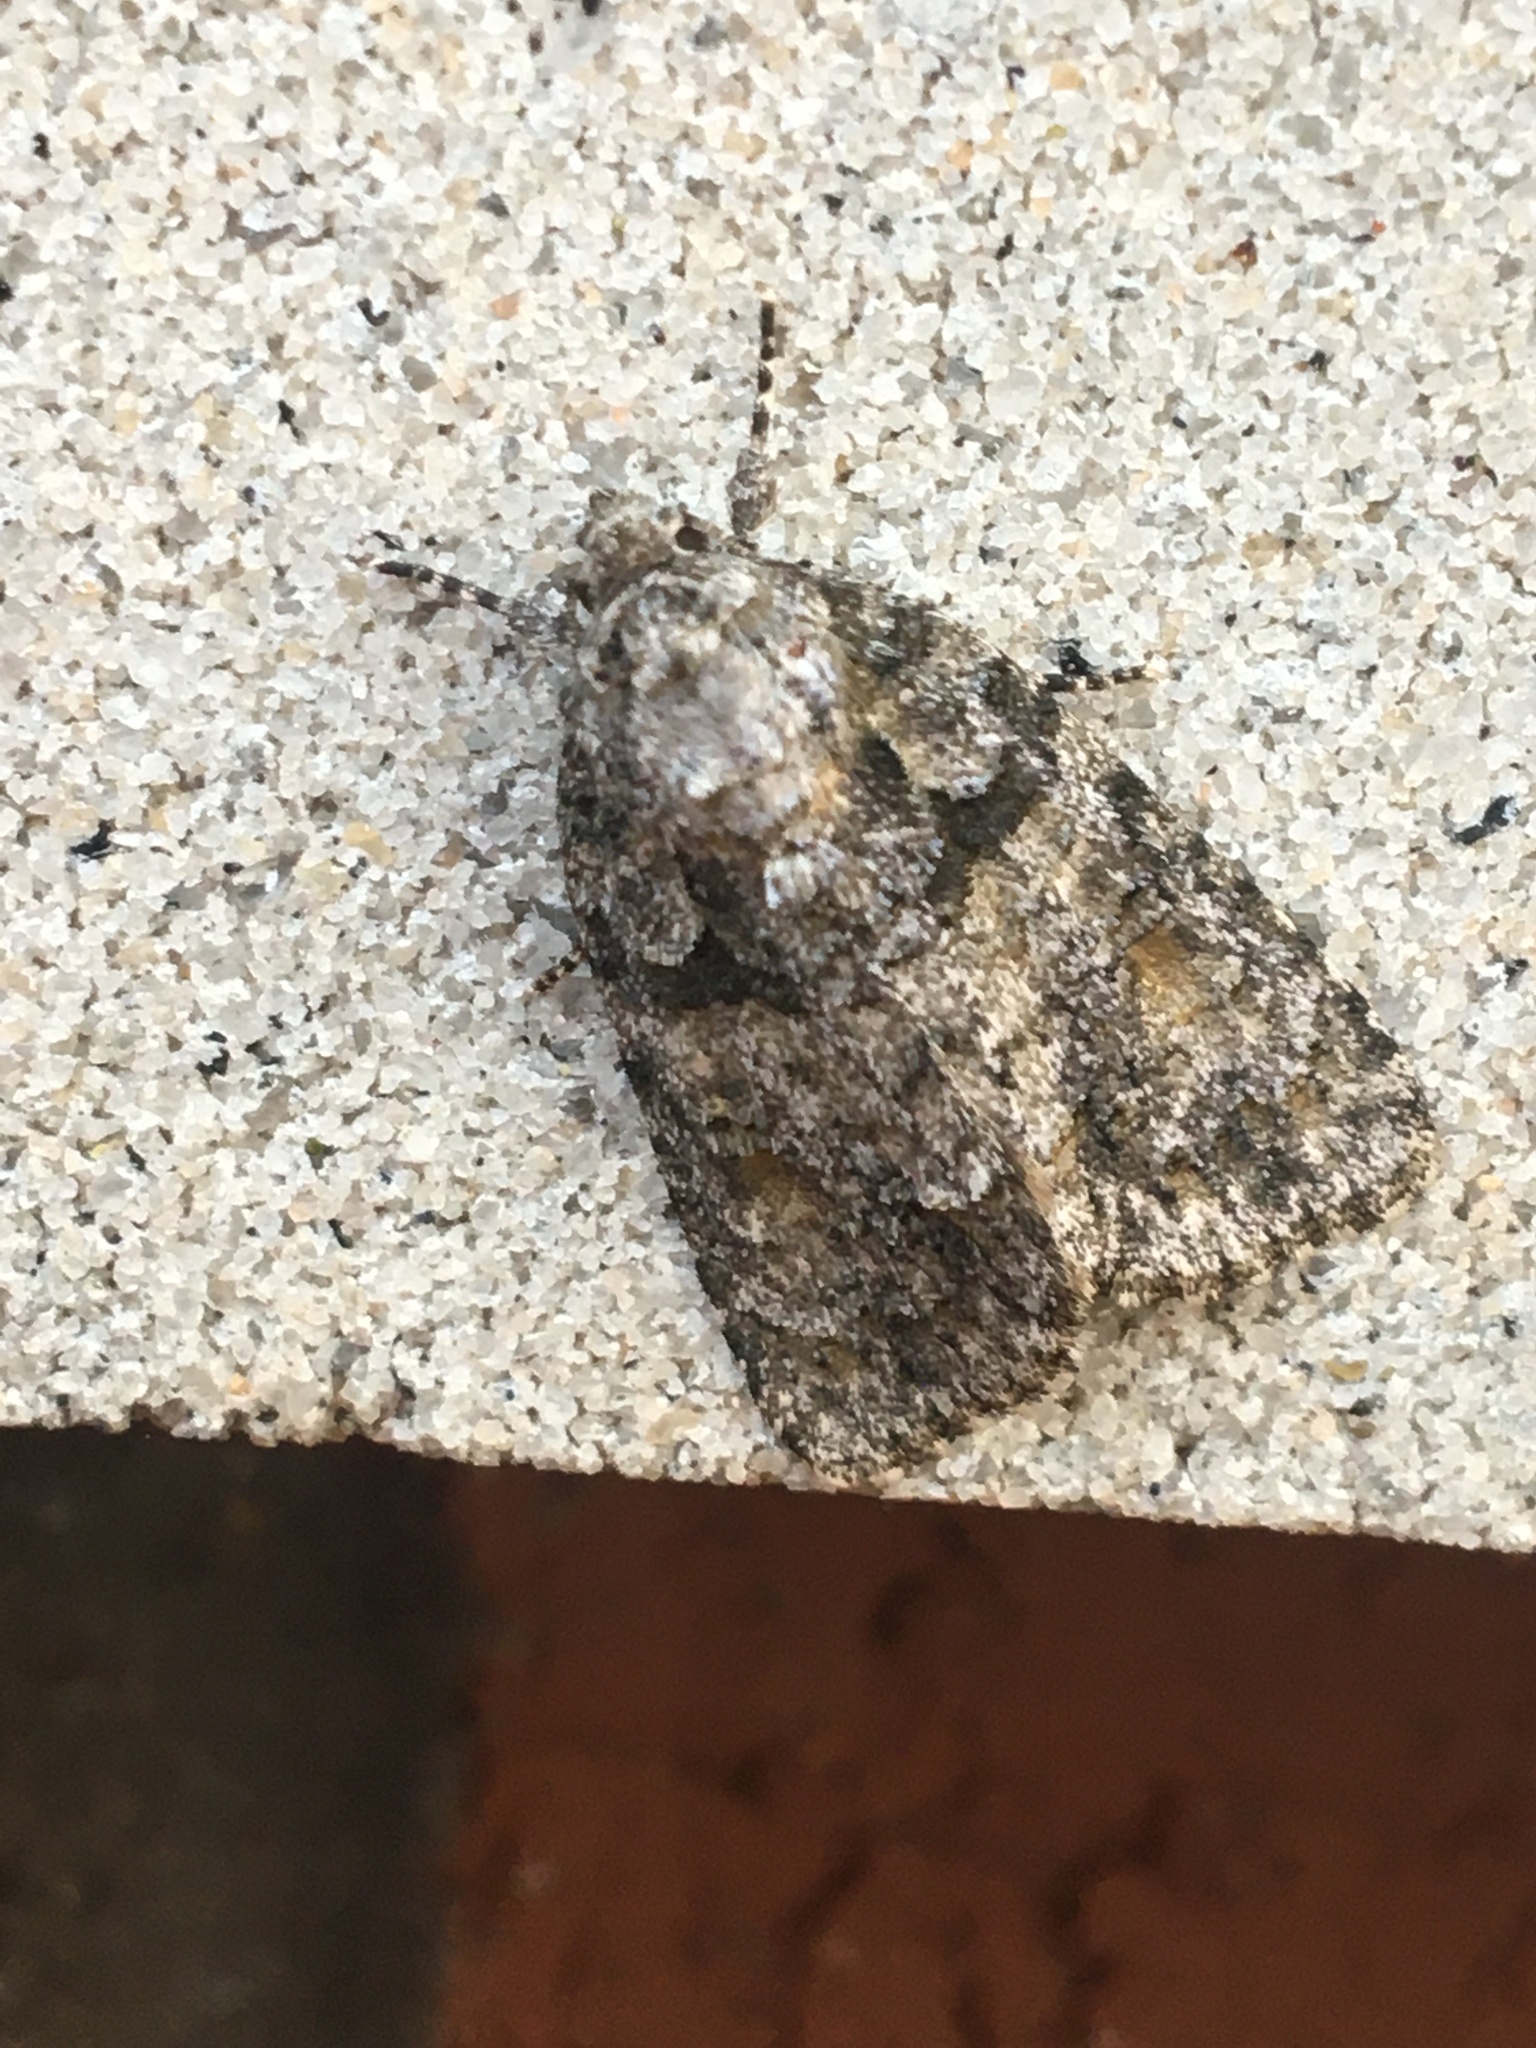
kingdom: Animalia
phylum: Arthropoda
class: Insecta
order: Lepidoptera
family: Noctuidae
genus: Acronicta
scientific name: Acronicta increta
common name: Eclipsed oak dagger
